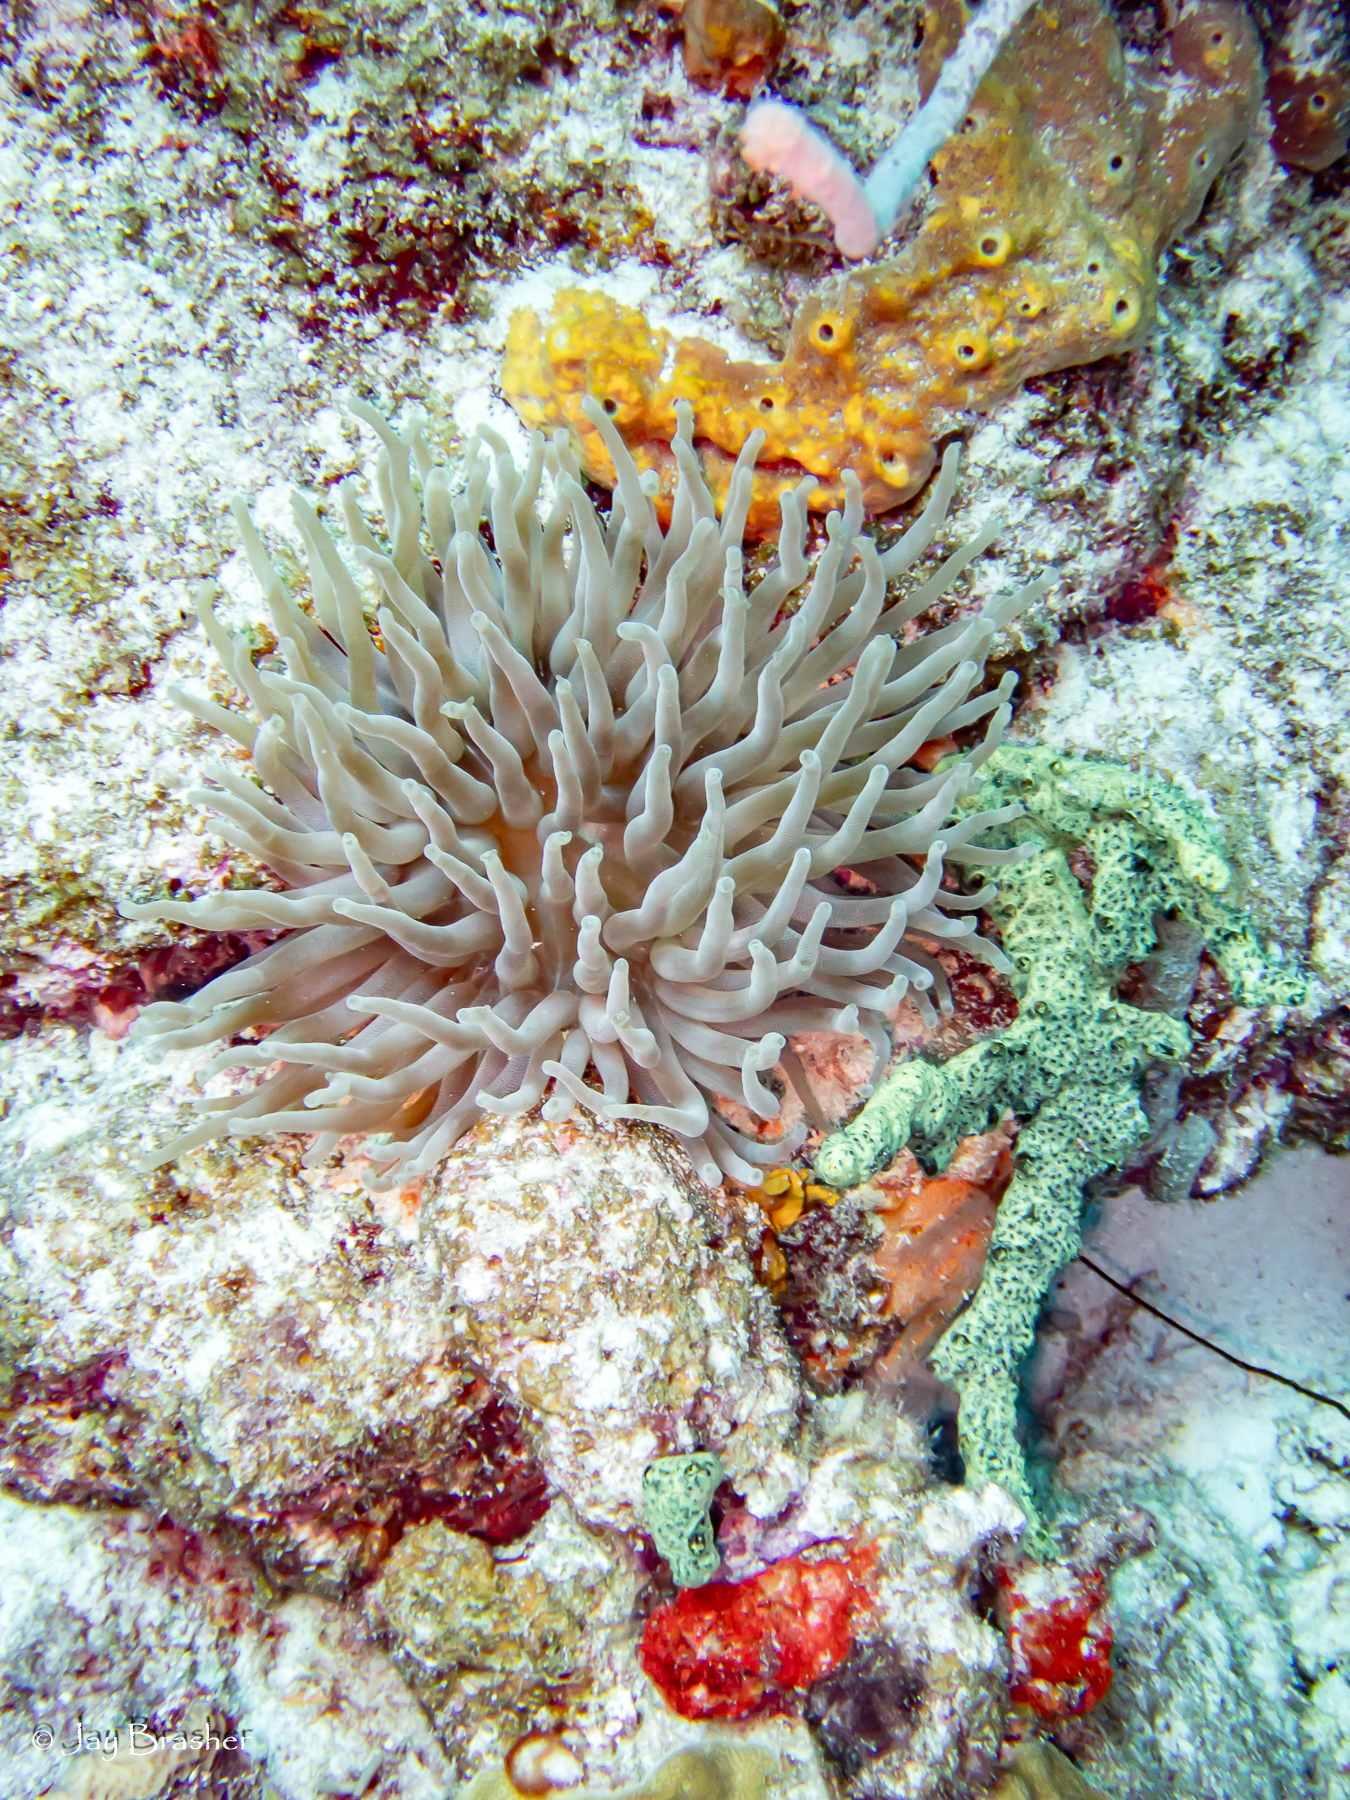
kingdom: Animalia
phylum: Porifera
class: Demospongiae
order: Poecilosclerida
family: Iotrochotidae
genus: Iotrochota
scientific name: Iotrochota birotulata
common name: Purple bleeding sponge
